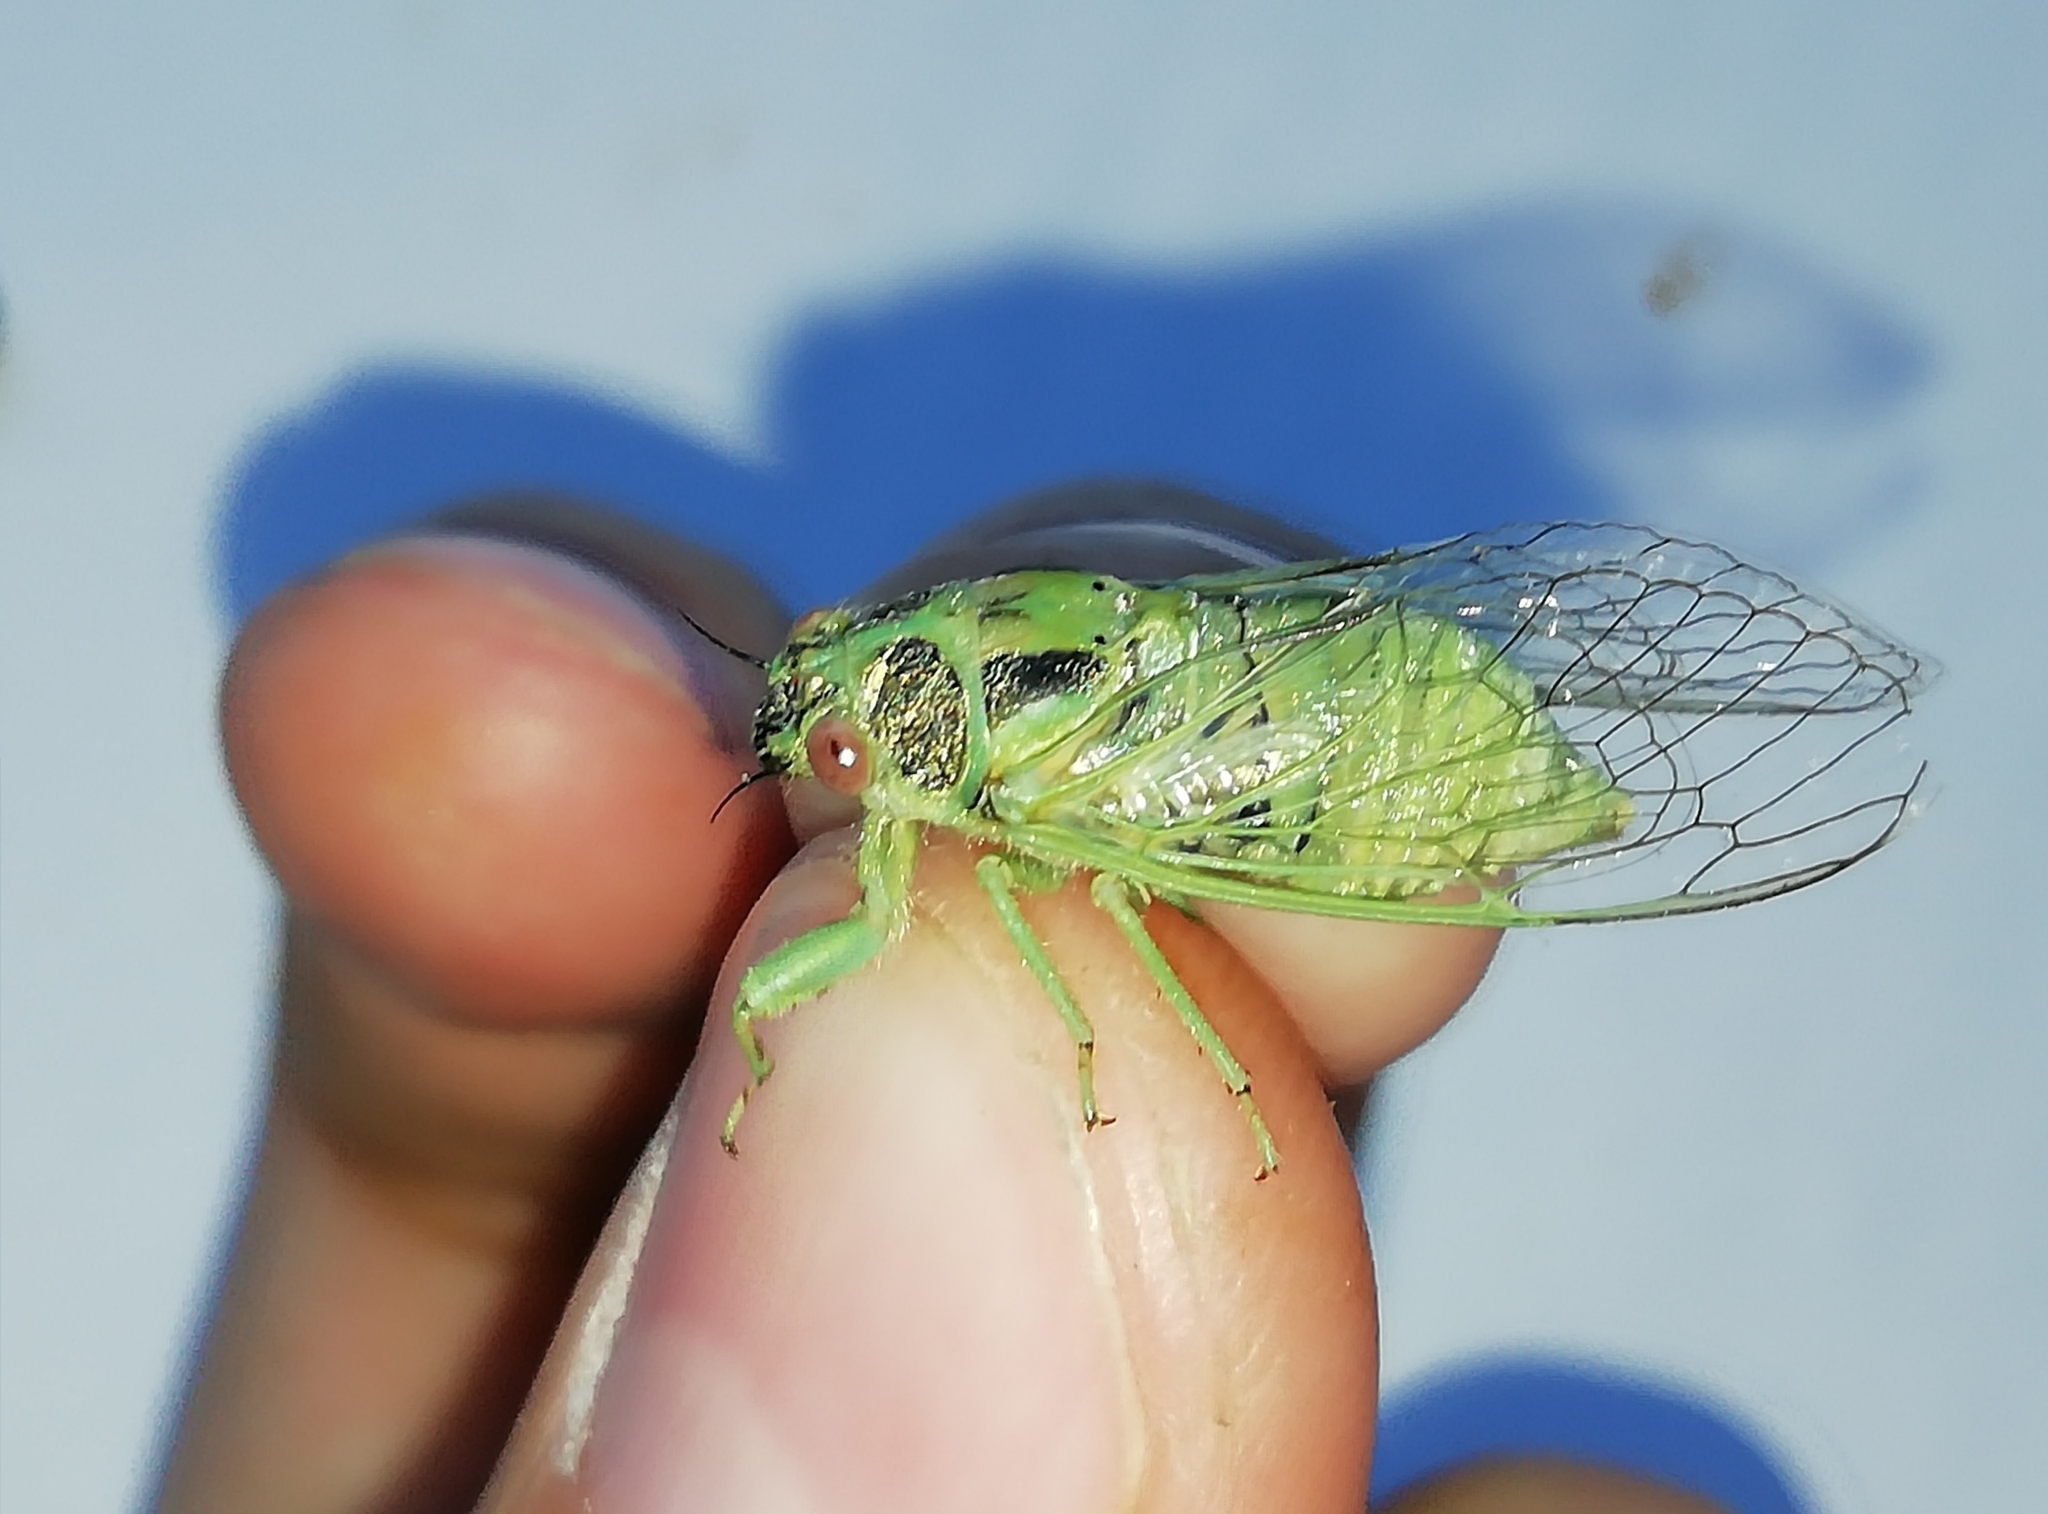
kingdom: Animalia
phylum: Arthropoda
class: Insecta
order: Hemiptera
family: Cicadidae
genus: Tettigetta
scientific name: Tettigetta prasina
